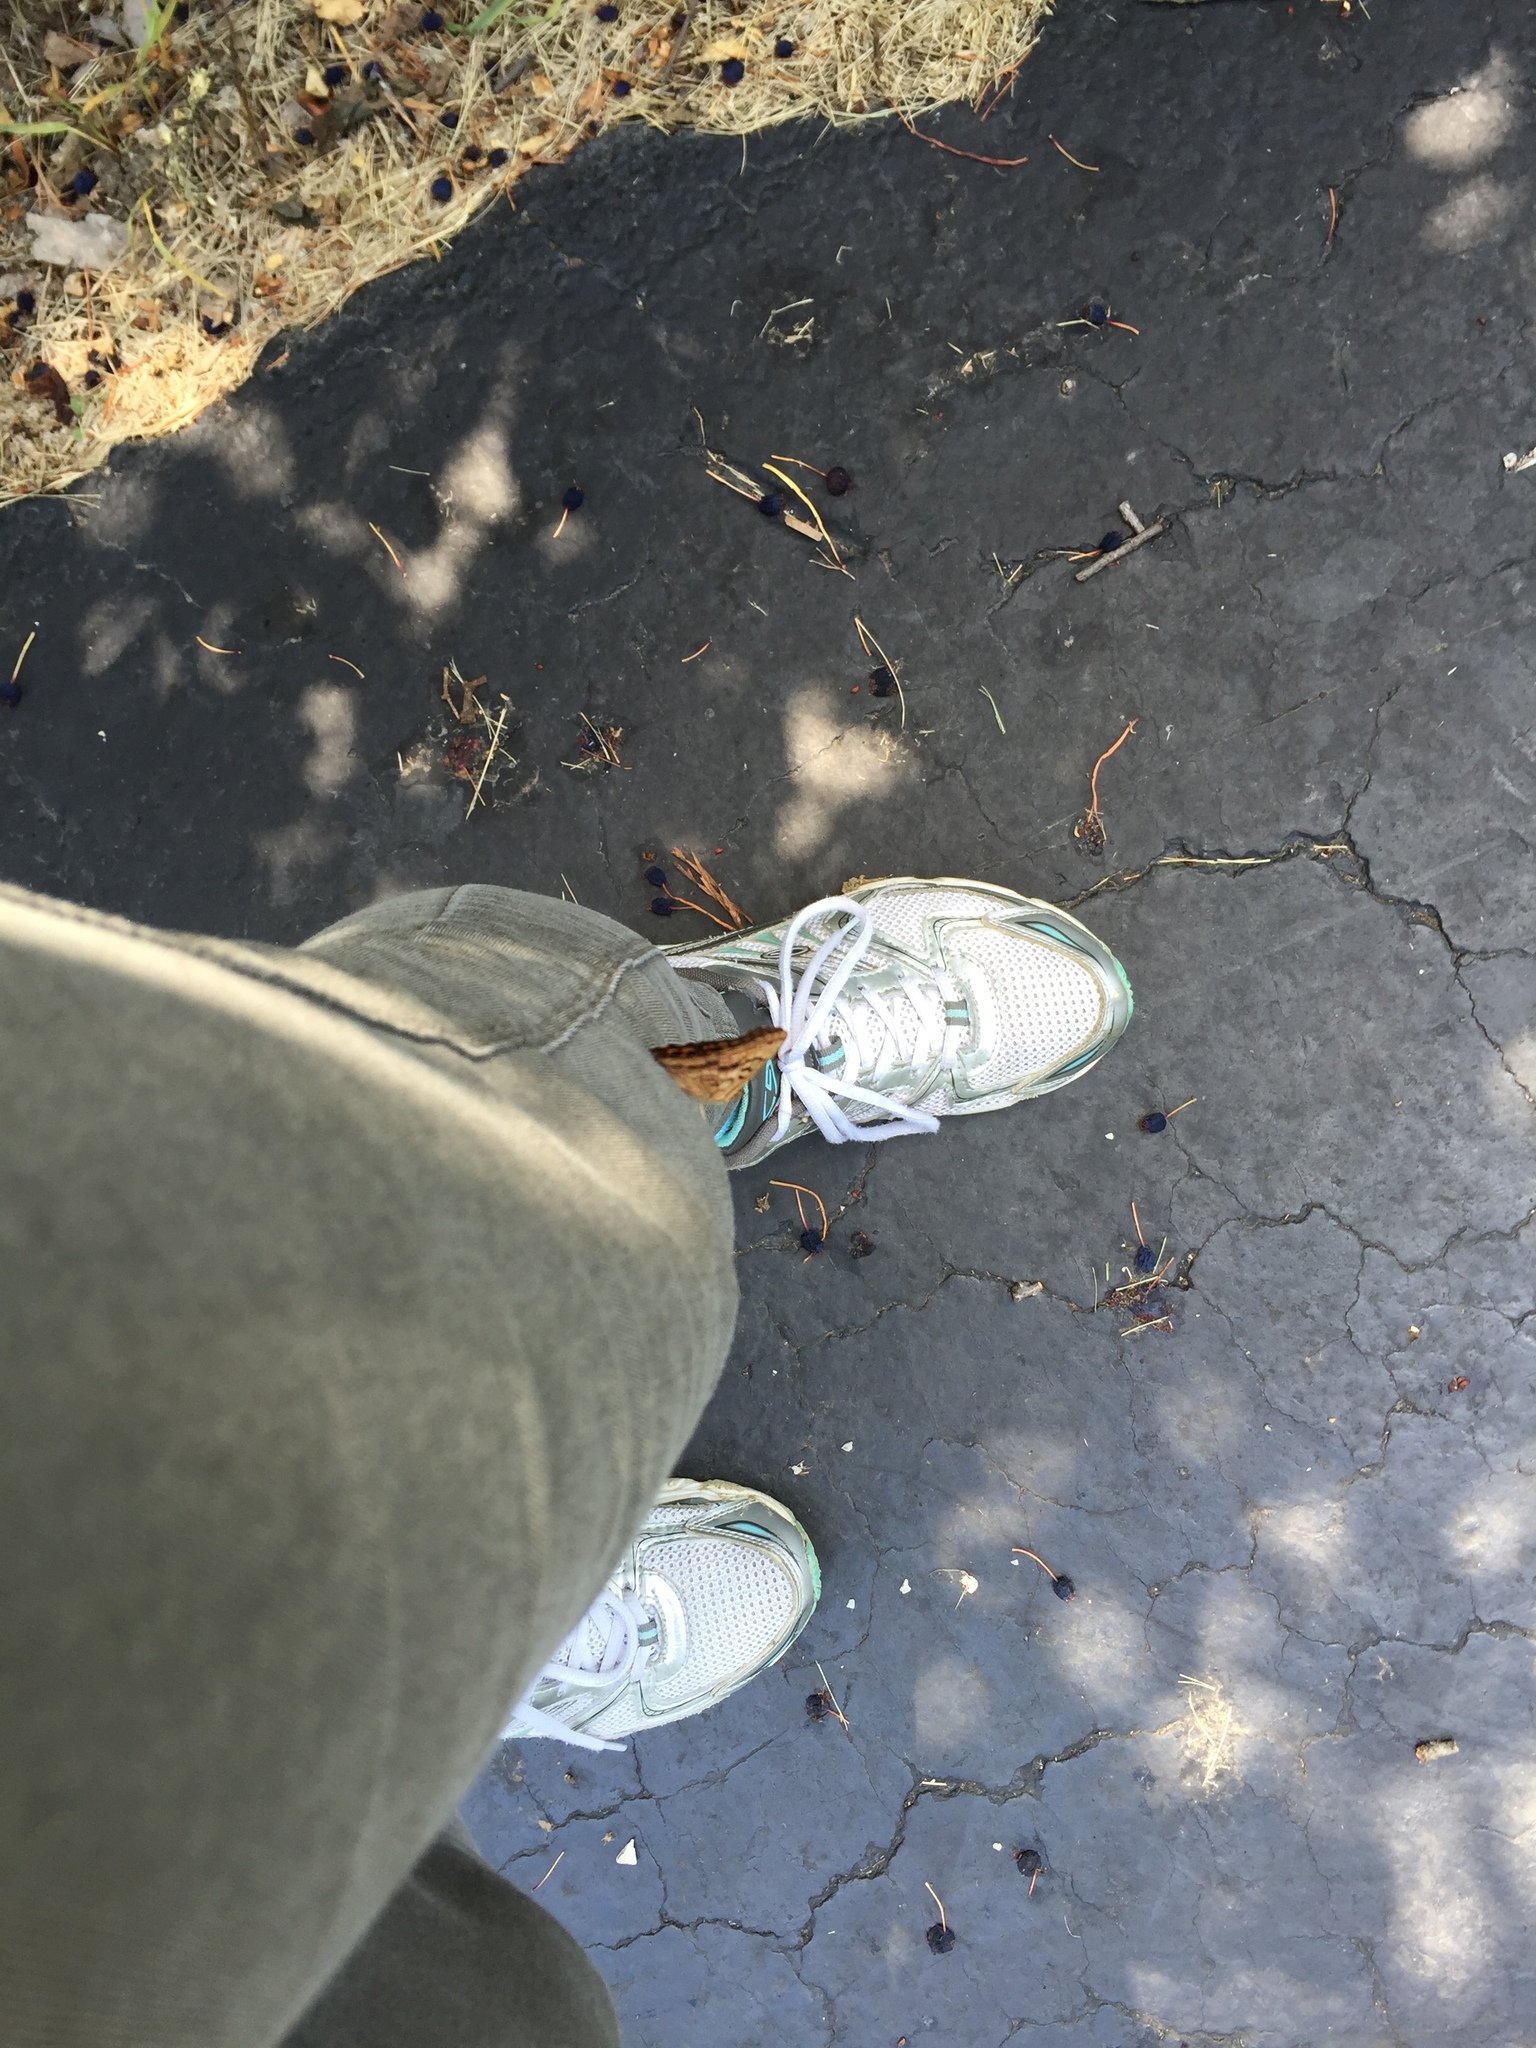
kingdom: Animalia
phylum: Arthropoda
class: Insecta
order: Lepidoptera
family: Nymphalidae
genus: Asterocampa
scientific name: Asterocampa clyton
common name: Tawny emperor
